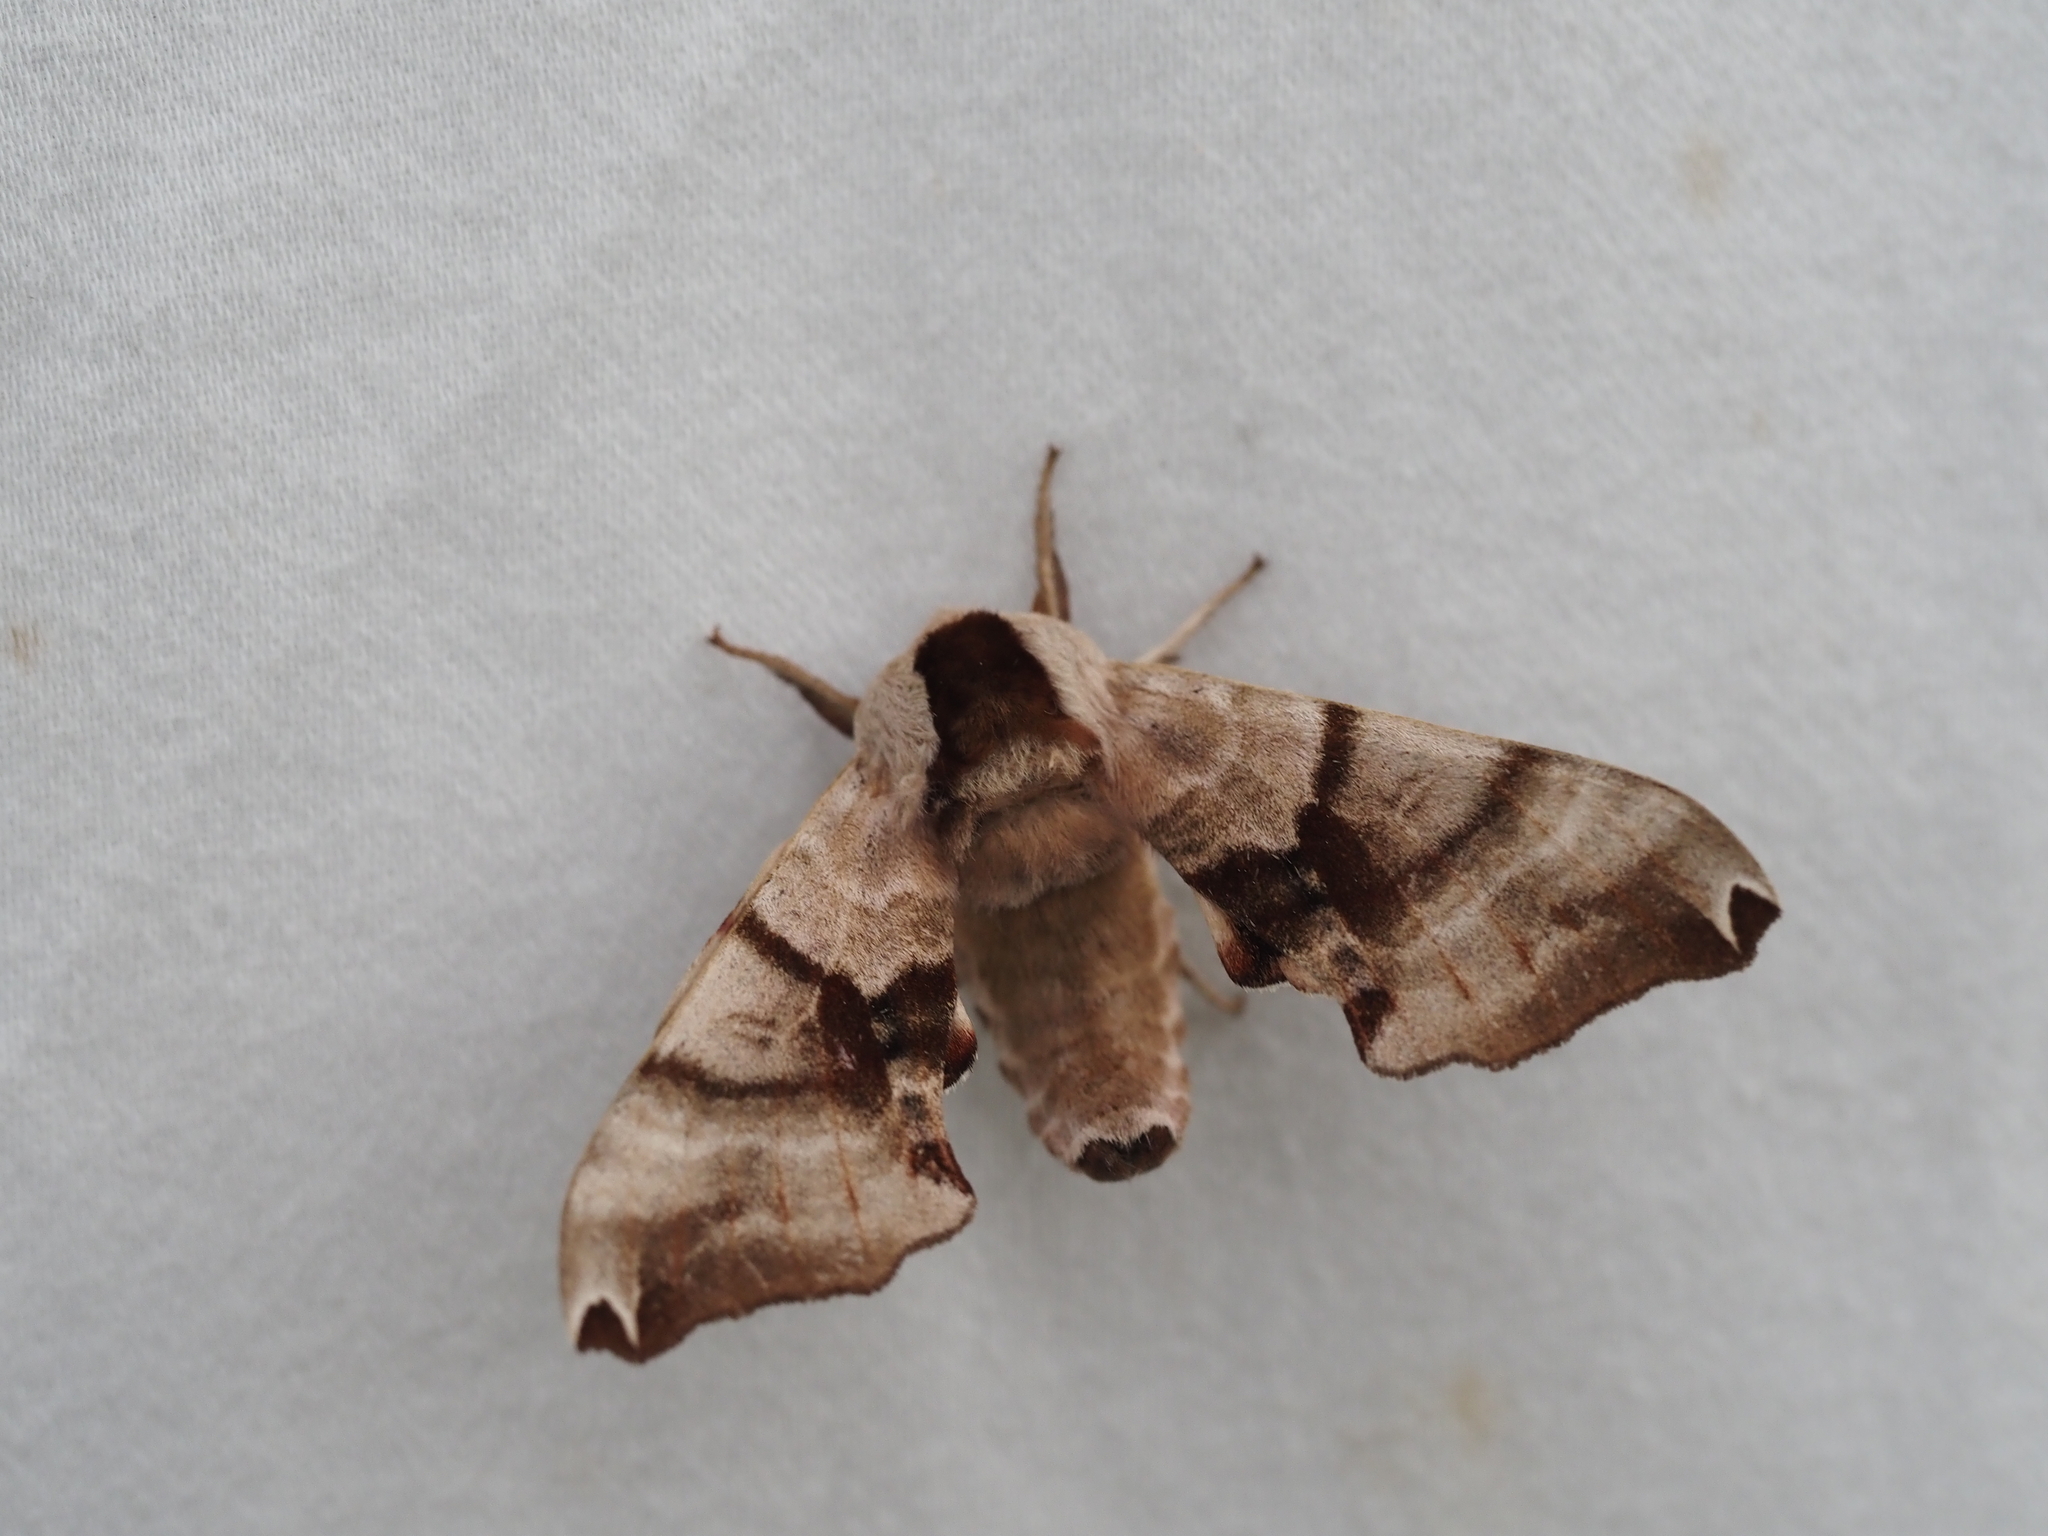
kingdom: Animalia
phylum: Arthropoda
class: Insecta
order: Lepidoptera
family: Sphingidae
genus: Smerinthus
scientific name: Smerinthus jamaicensis
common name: Twin spotted sphinx
